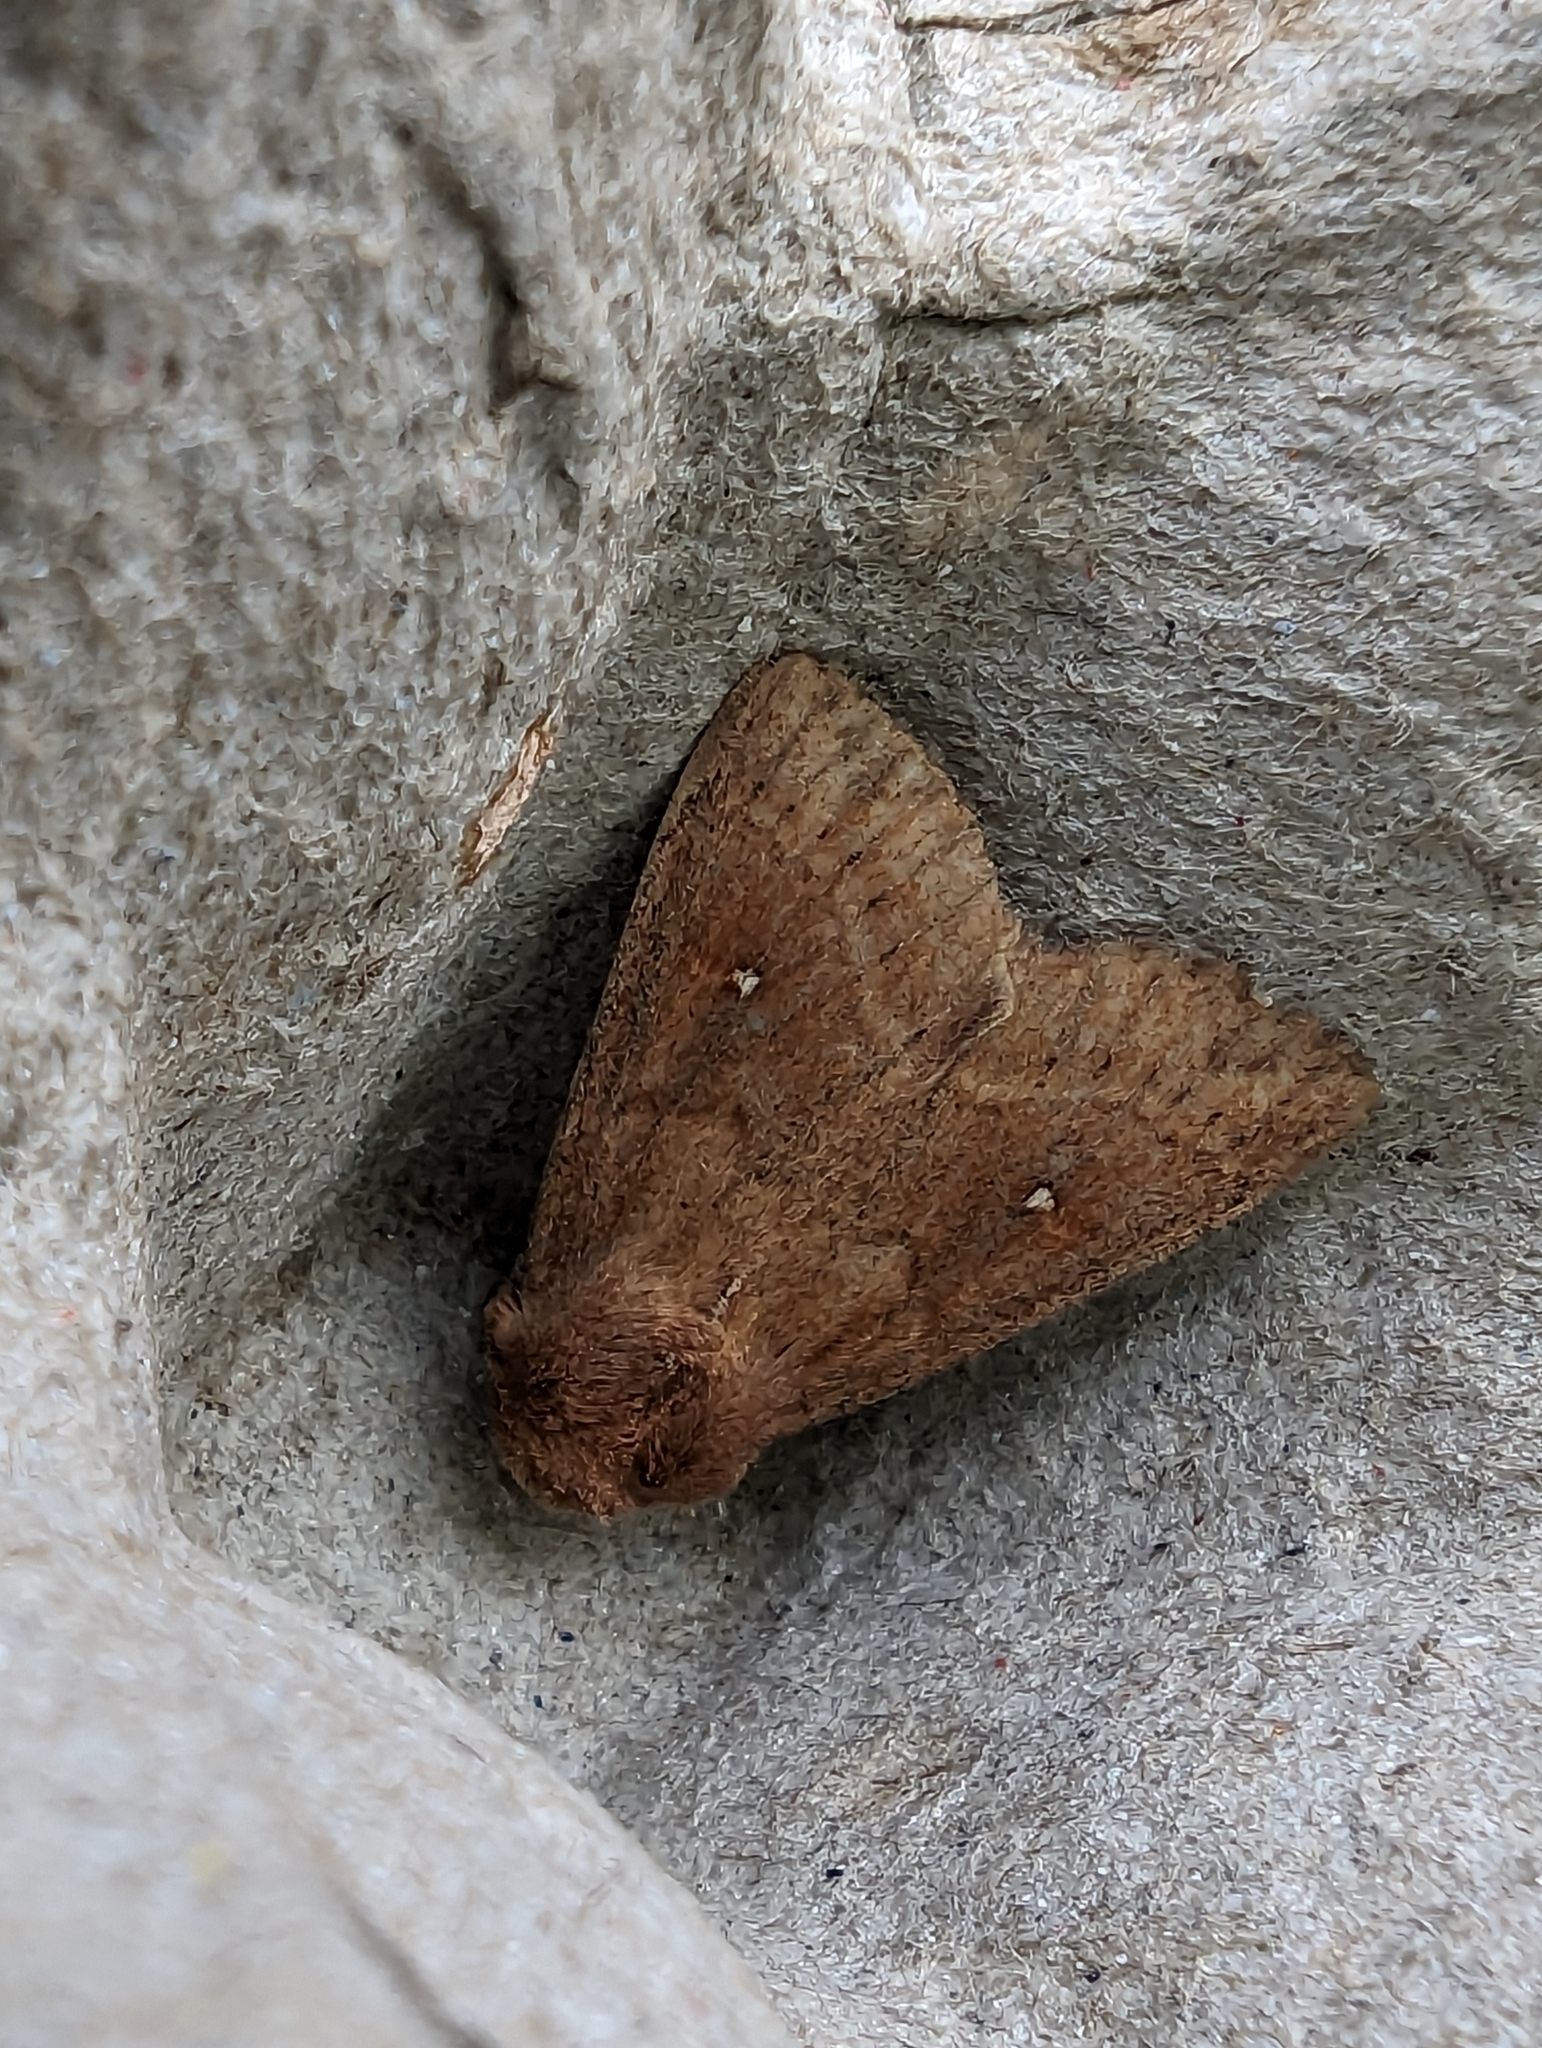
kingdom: Animalia
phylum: Arthropoda
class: Insecta
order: Lepidoptera
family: Noctuidae
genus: Mythimna
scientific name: Mythimna albipuncta
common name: White-point
